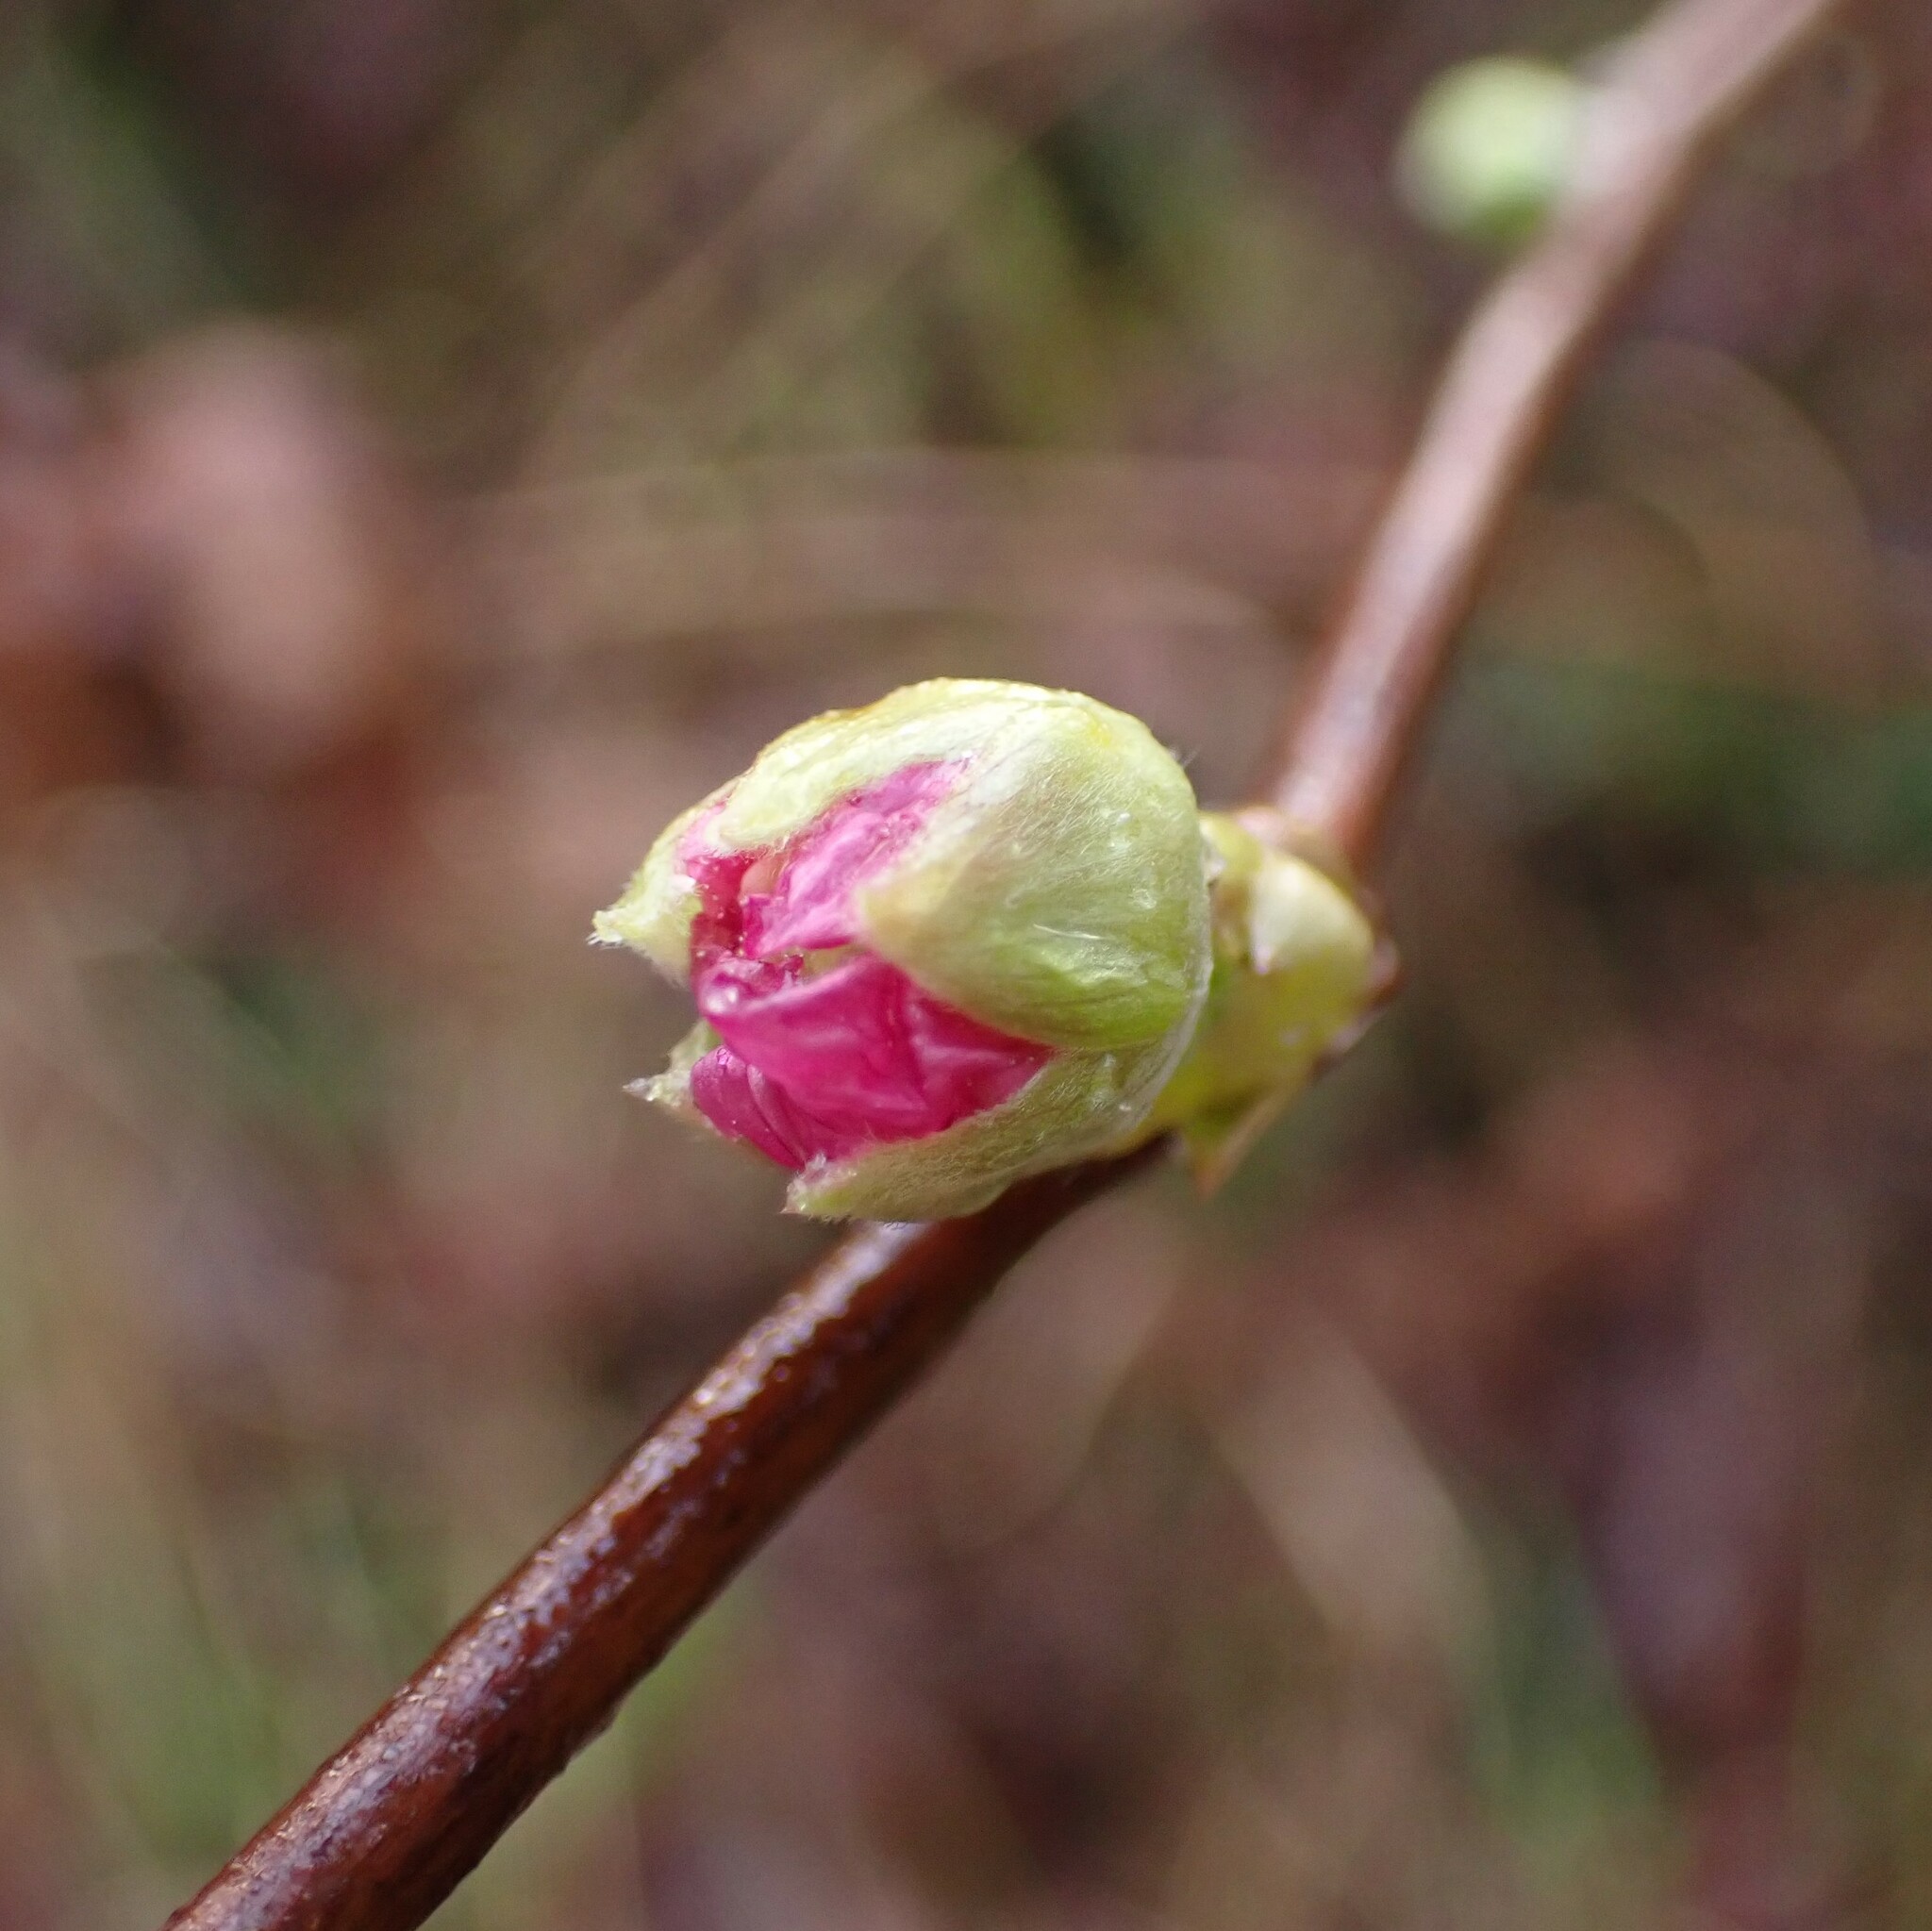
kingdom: Plantae
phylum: Tracheophyta
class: Magnoliopsida
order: Rosales
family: Rosaceae
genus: Rubus
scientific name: Rubus spectabilis
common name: Salmonberry
